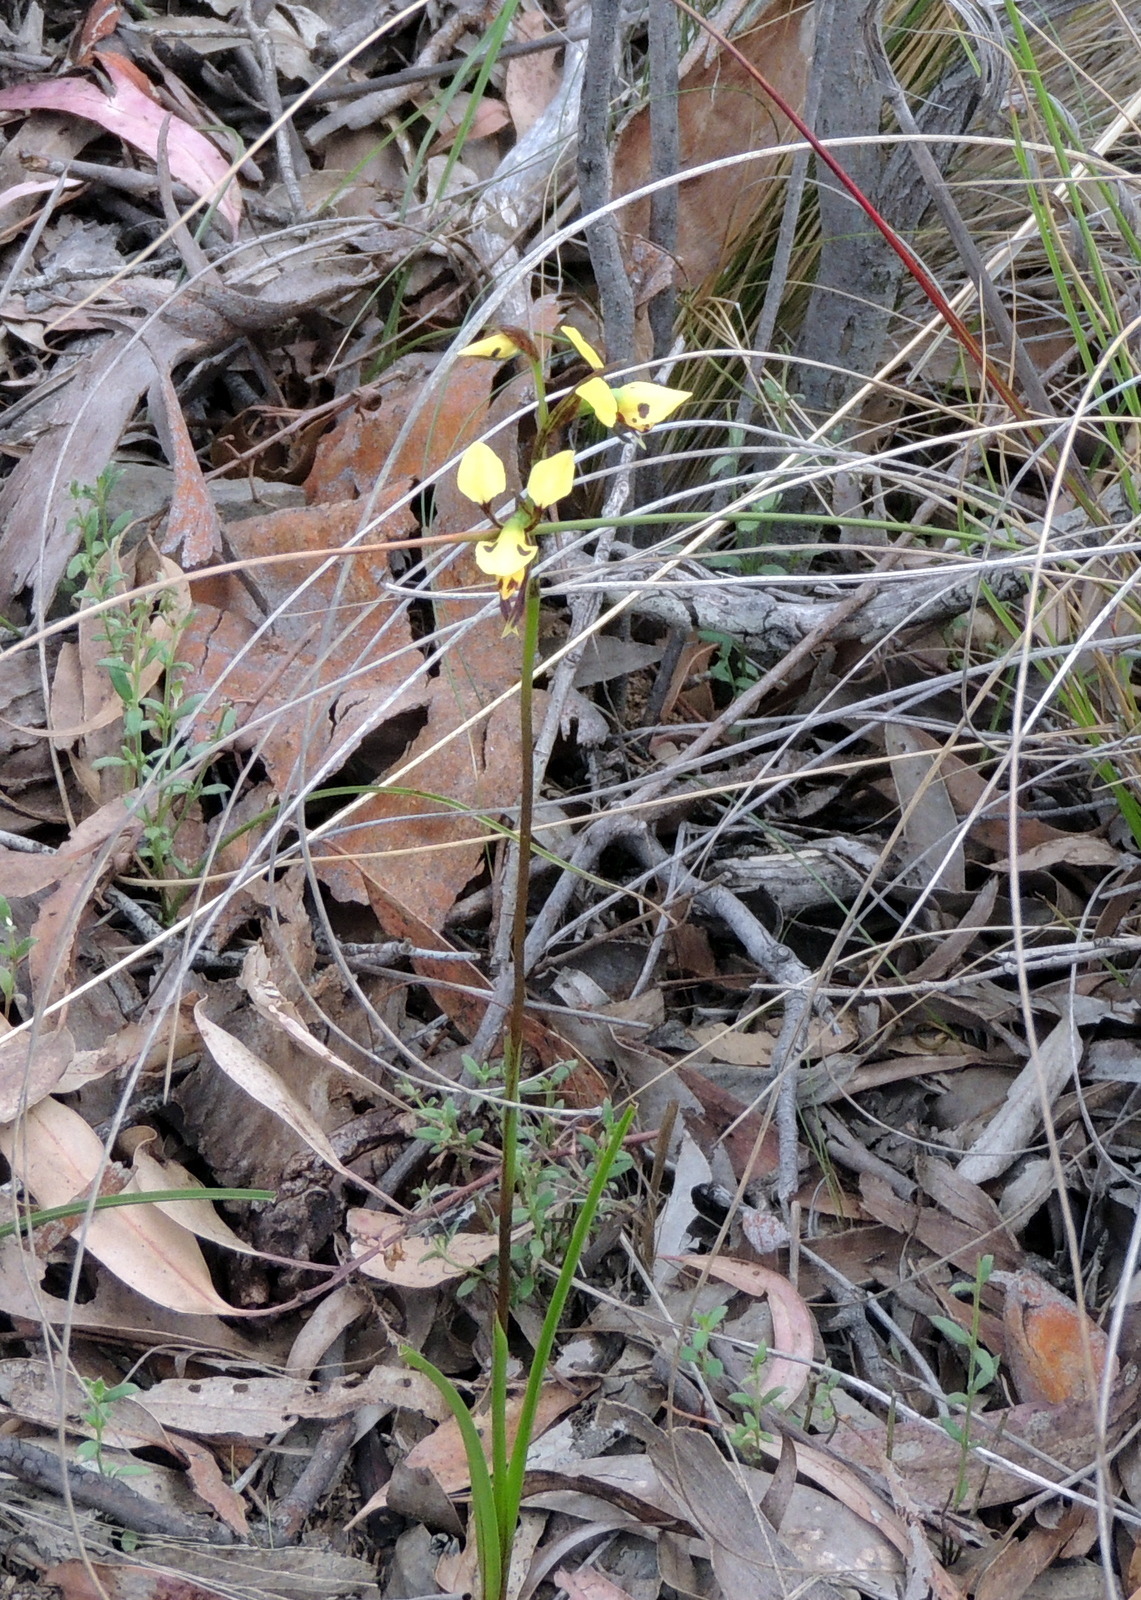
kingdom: Plantae
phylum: Tracheophyta
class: Liliopsida
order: Asparagales
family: Orchidaceae
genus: Diuris
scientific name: Diuris sulphurea
